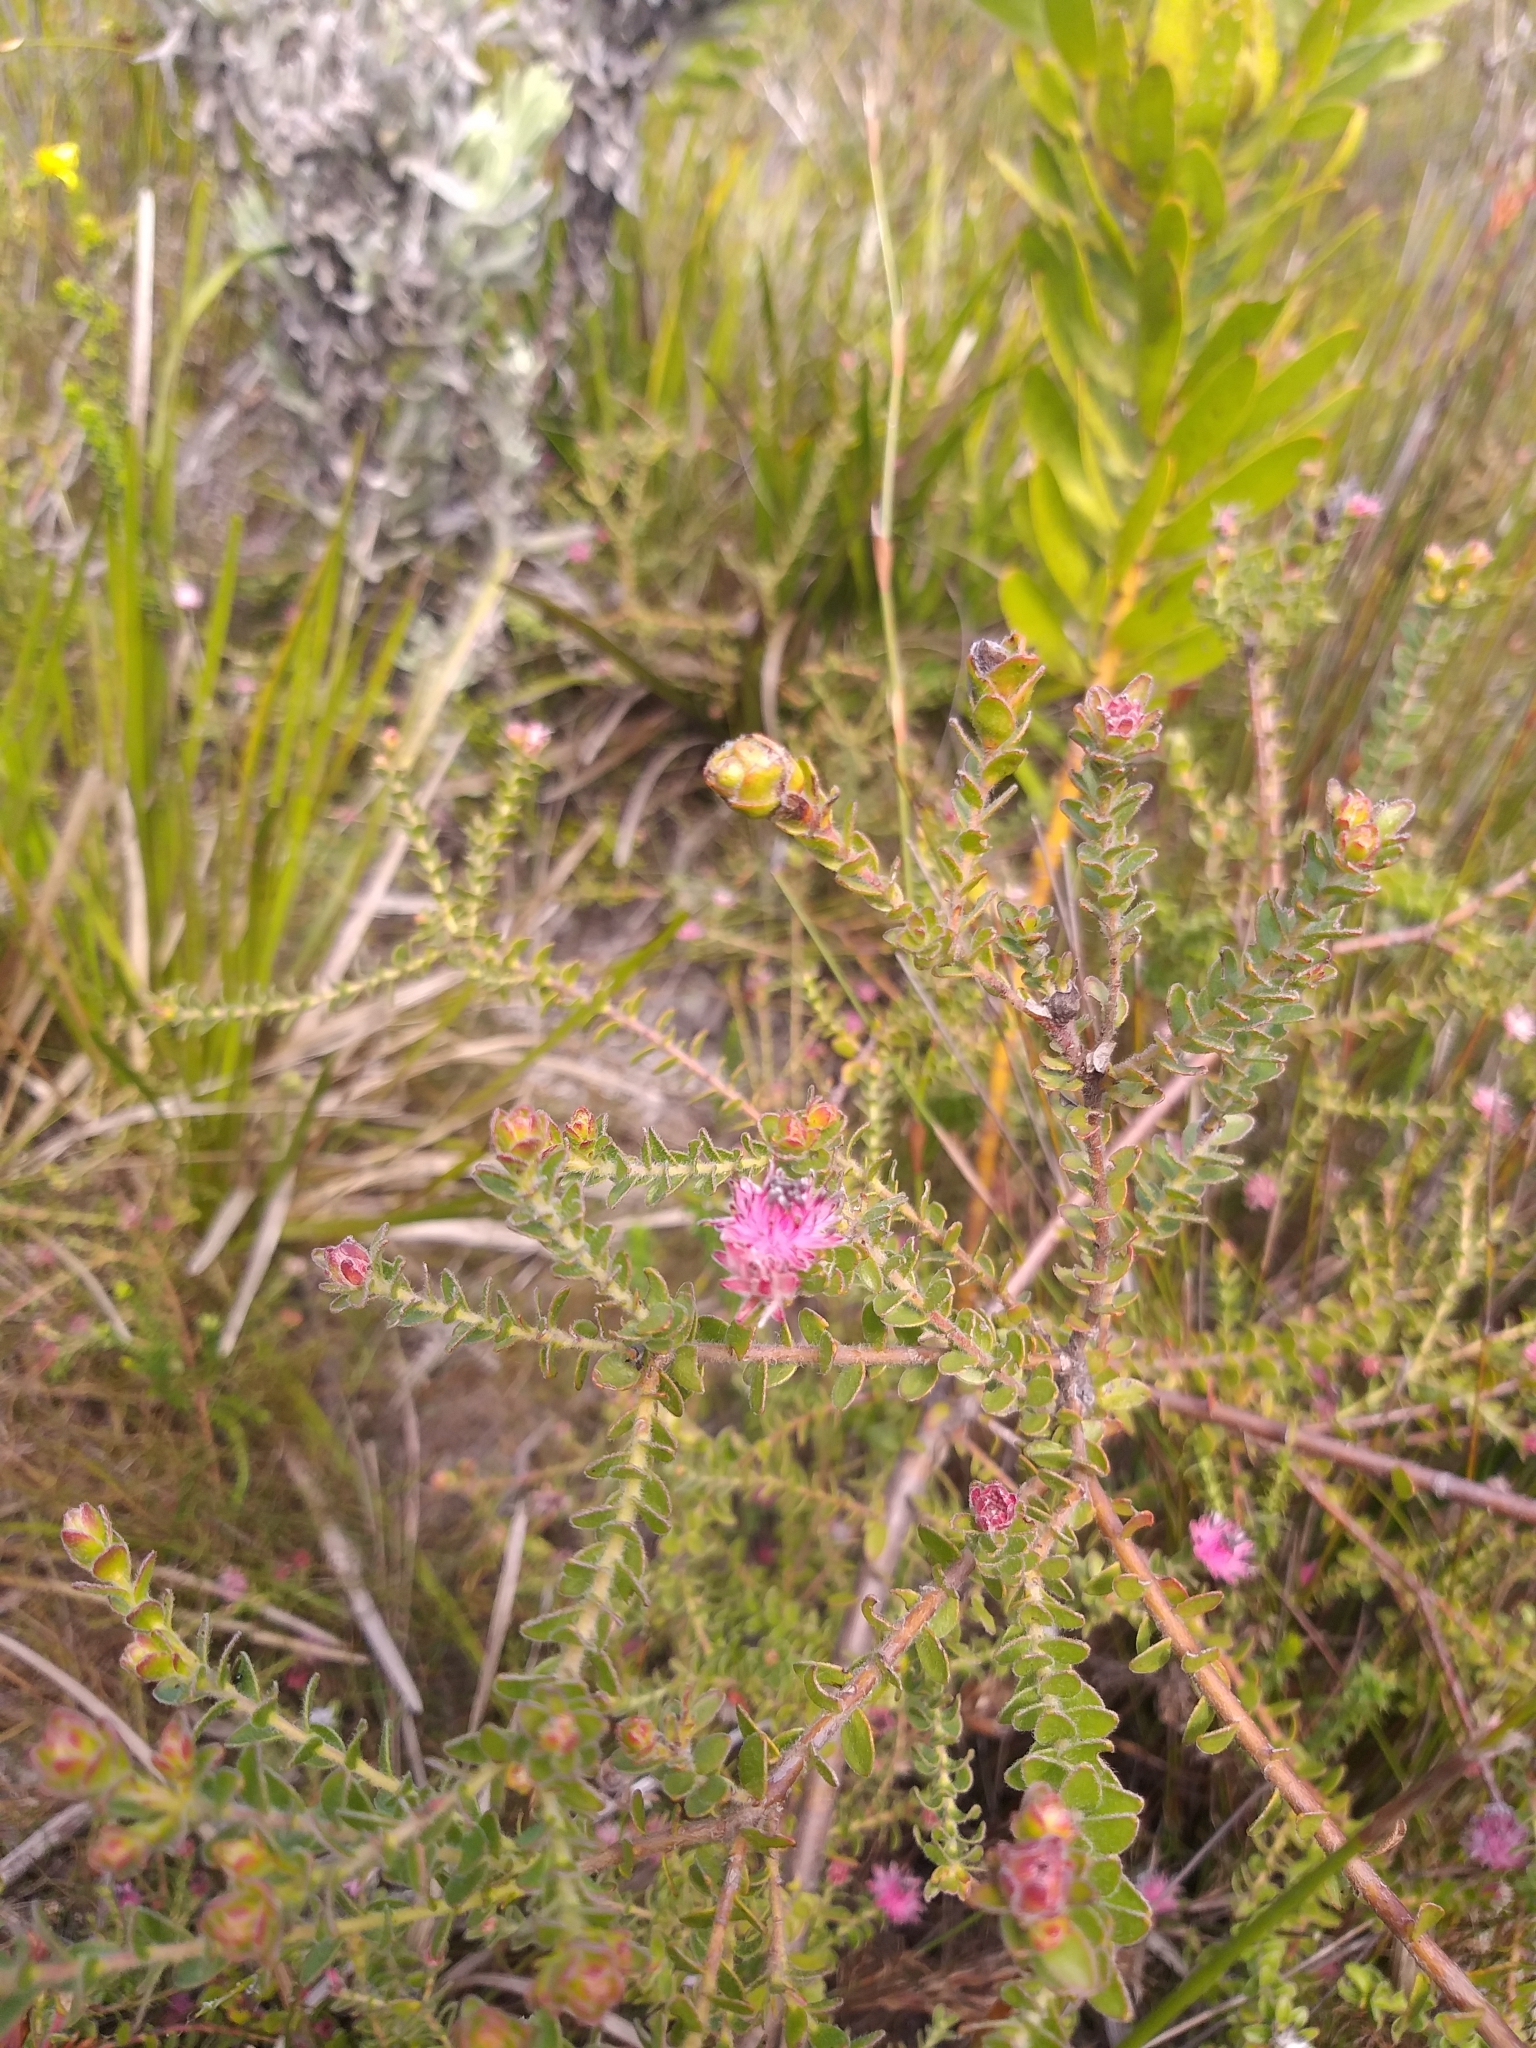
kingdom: Plantae
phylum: Tracheophyta
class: Magnoliopsida
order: Proteales
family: Proteaceae
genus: Diastella
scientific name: Diastella divaricata
